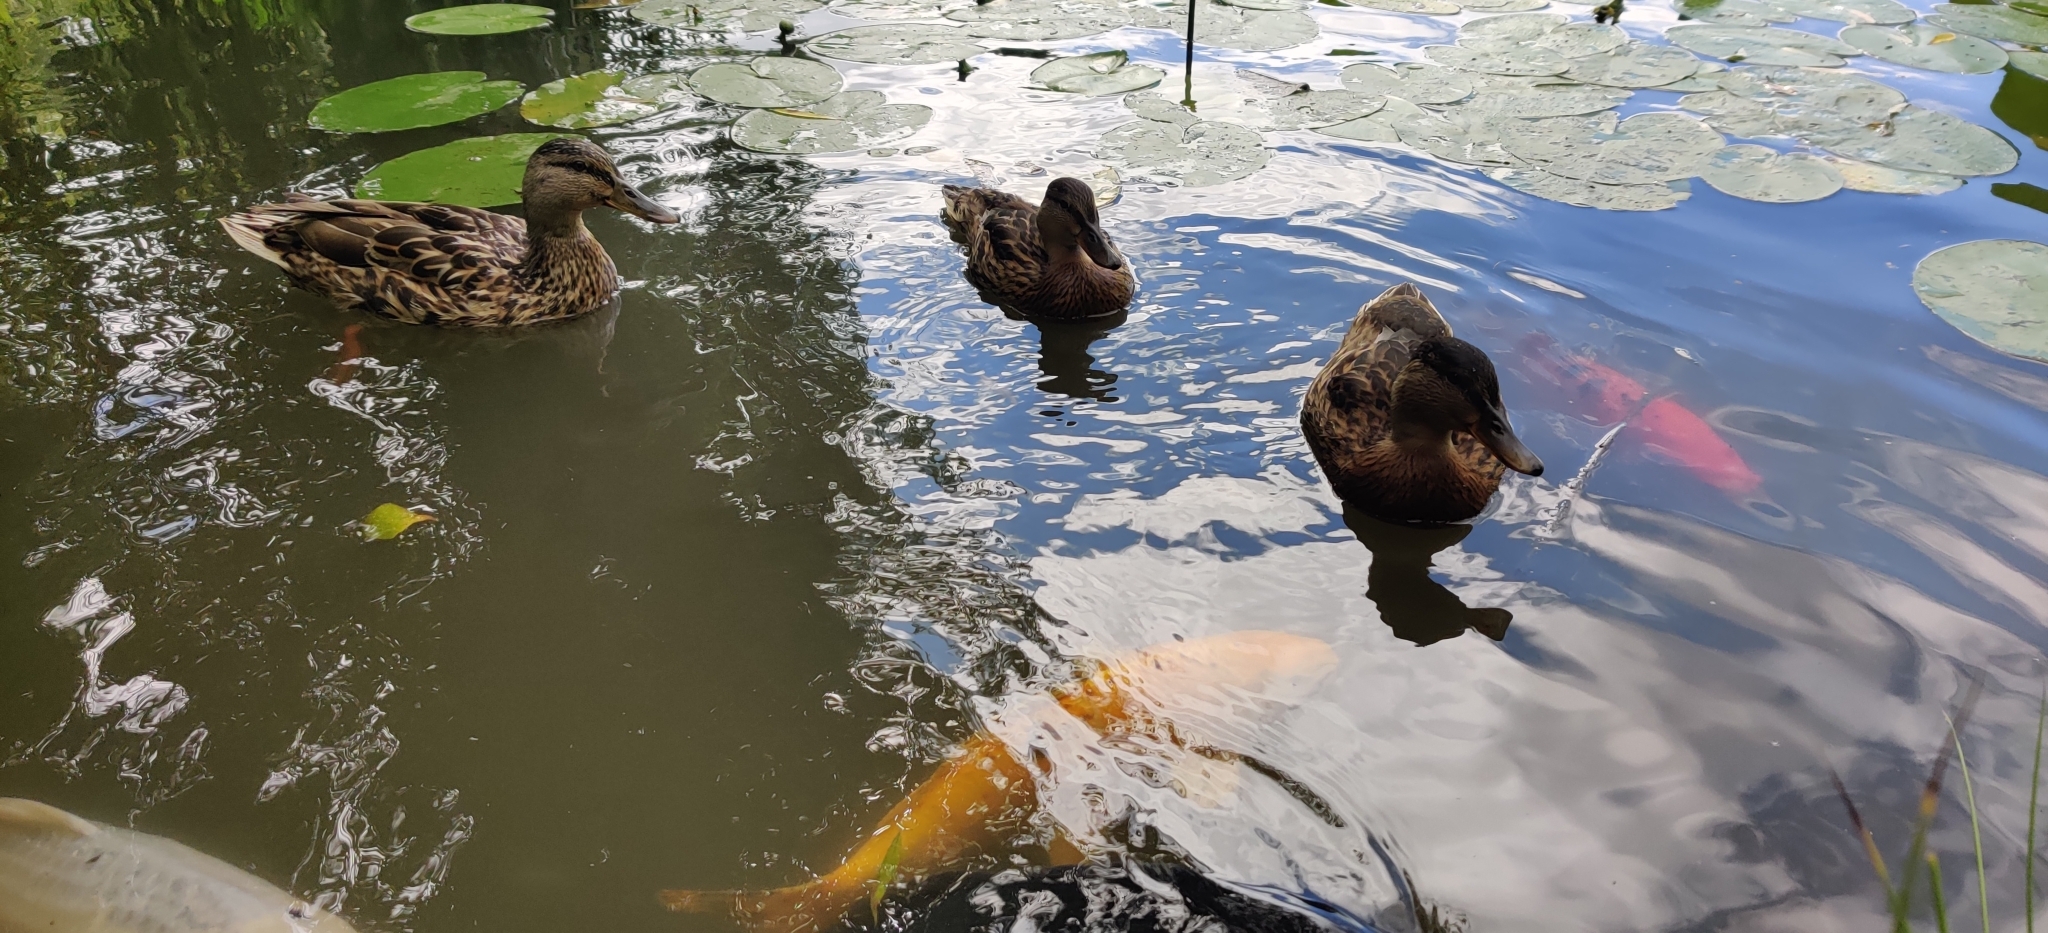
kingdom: Animalia
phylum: Chordata
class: Aves
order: Anseriformes
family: Anatidae
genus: Anas
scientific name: Anas platyrhynchos
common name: Mallard
